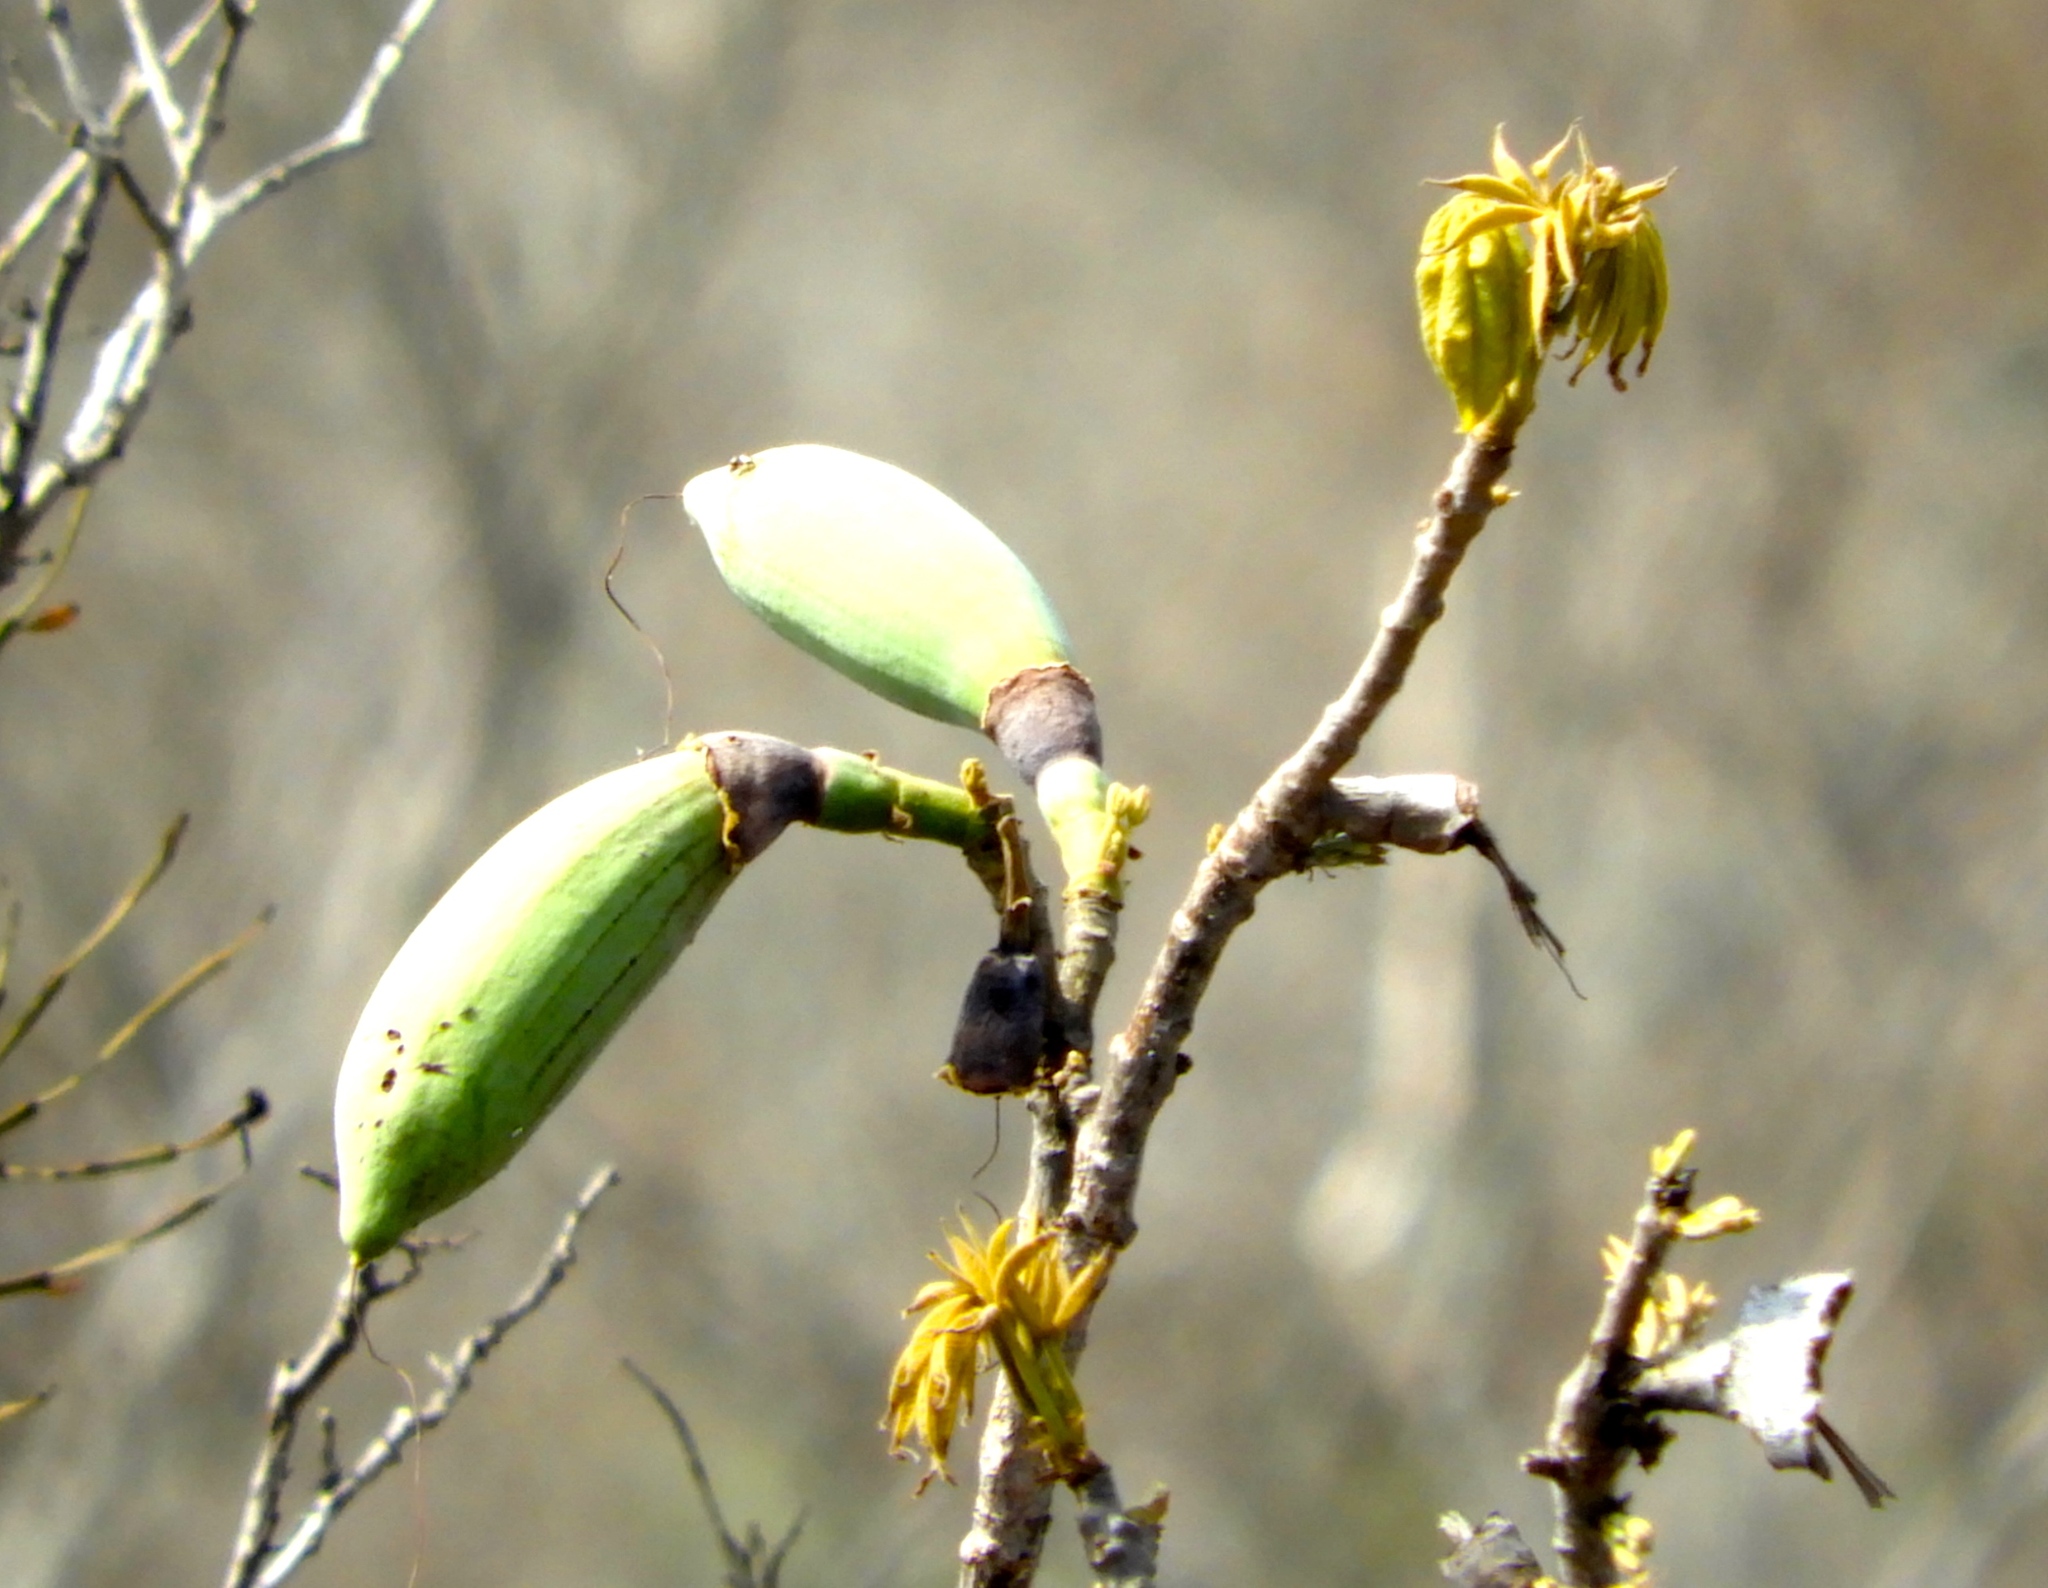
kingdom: Plantae
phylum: Tracheophyta
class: Magnoliopsida
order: Malvales
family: Malvaceae
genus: Ceiba
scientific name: Ceiba aesculifolia
